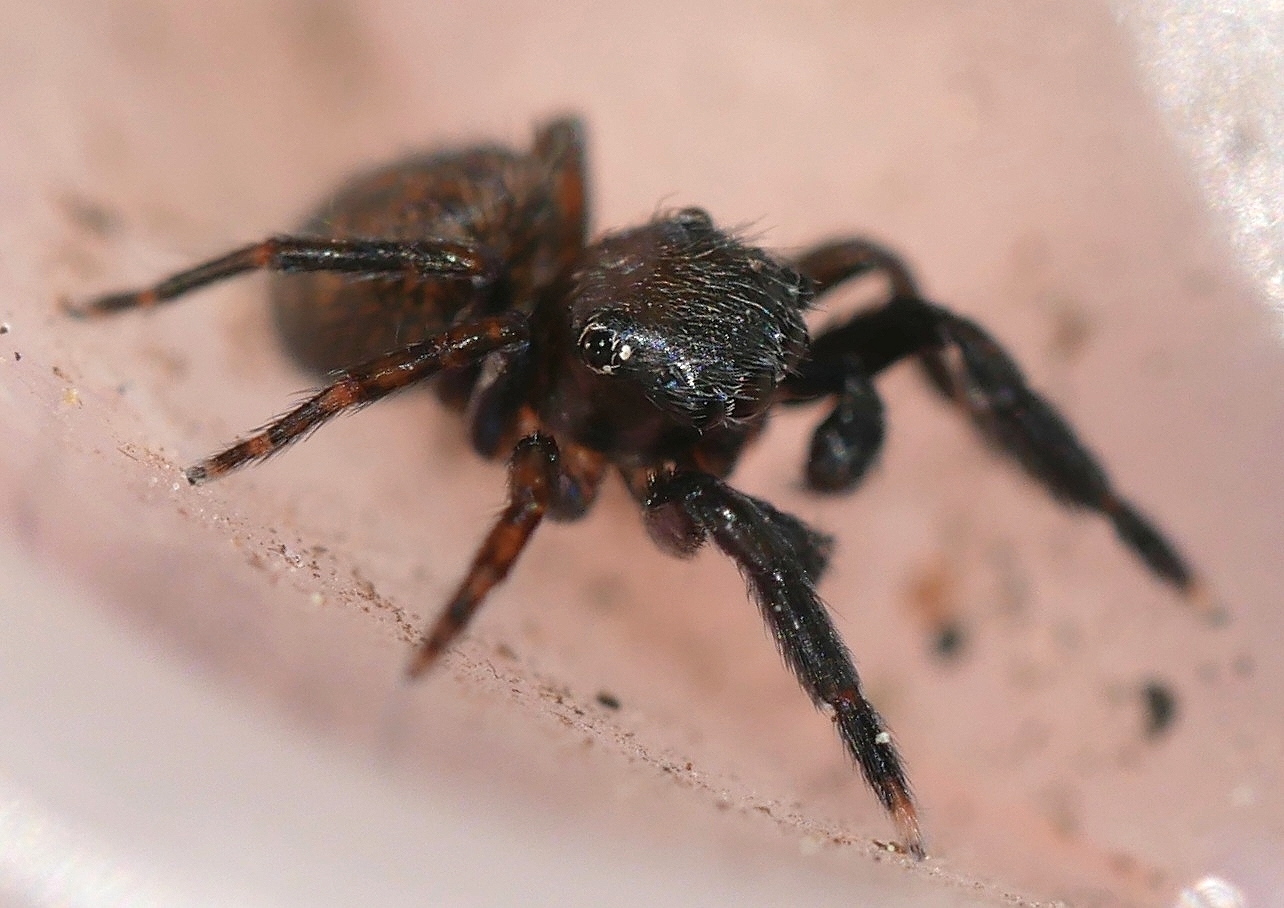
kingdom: Animalia
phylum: Arthropoda
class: Arachnida
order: Araneae
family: Salticidae
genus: Neon
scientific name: Neon ellamae
